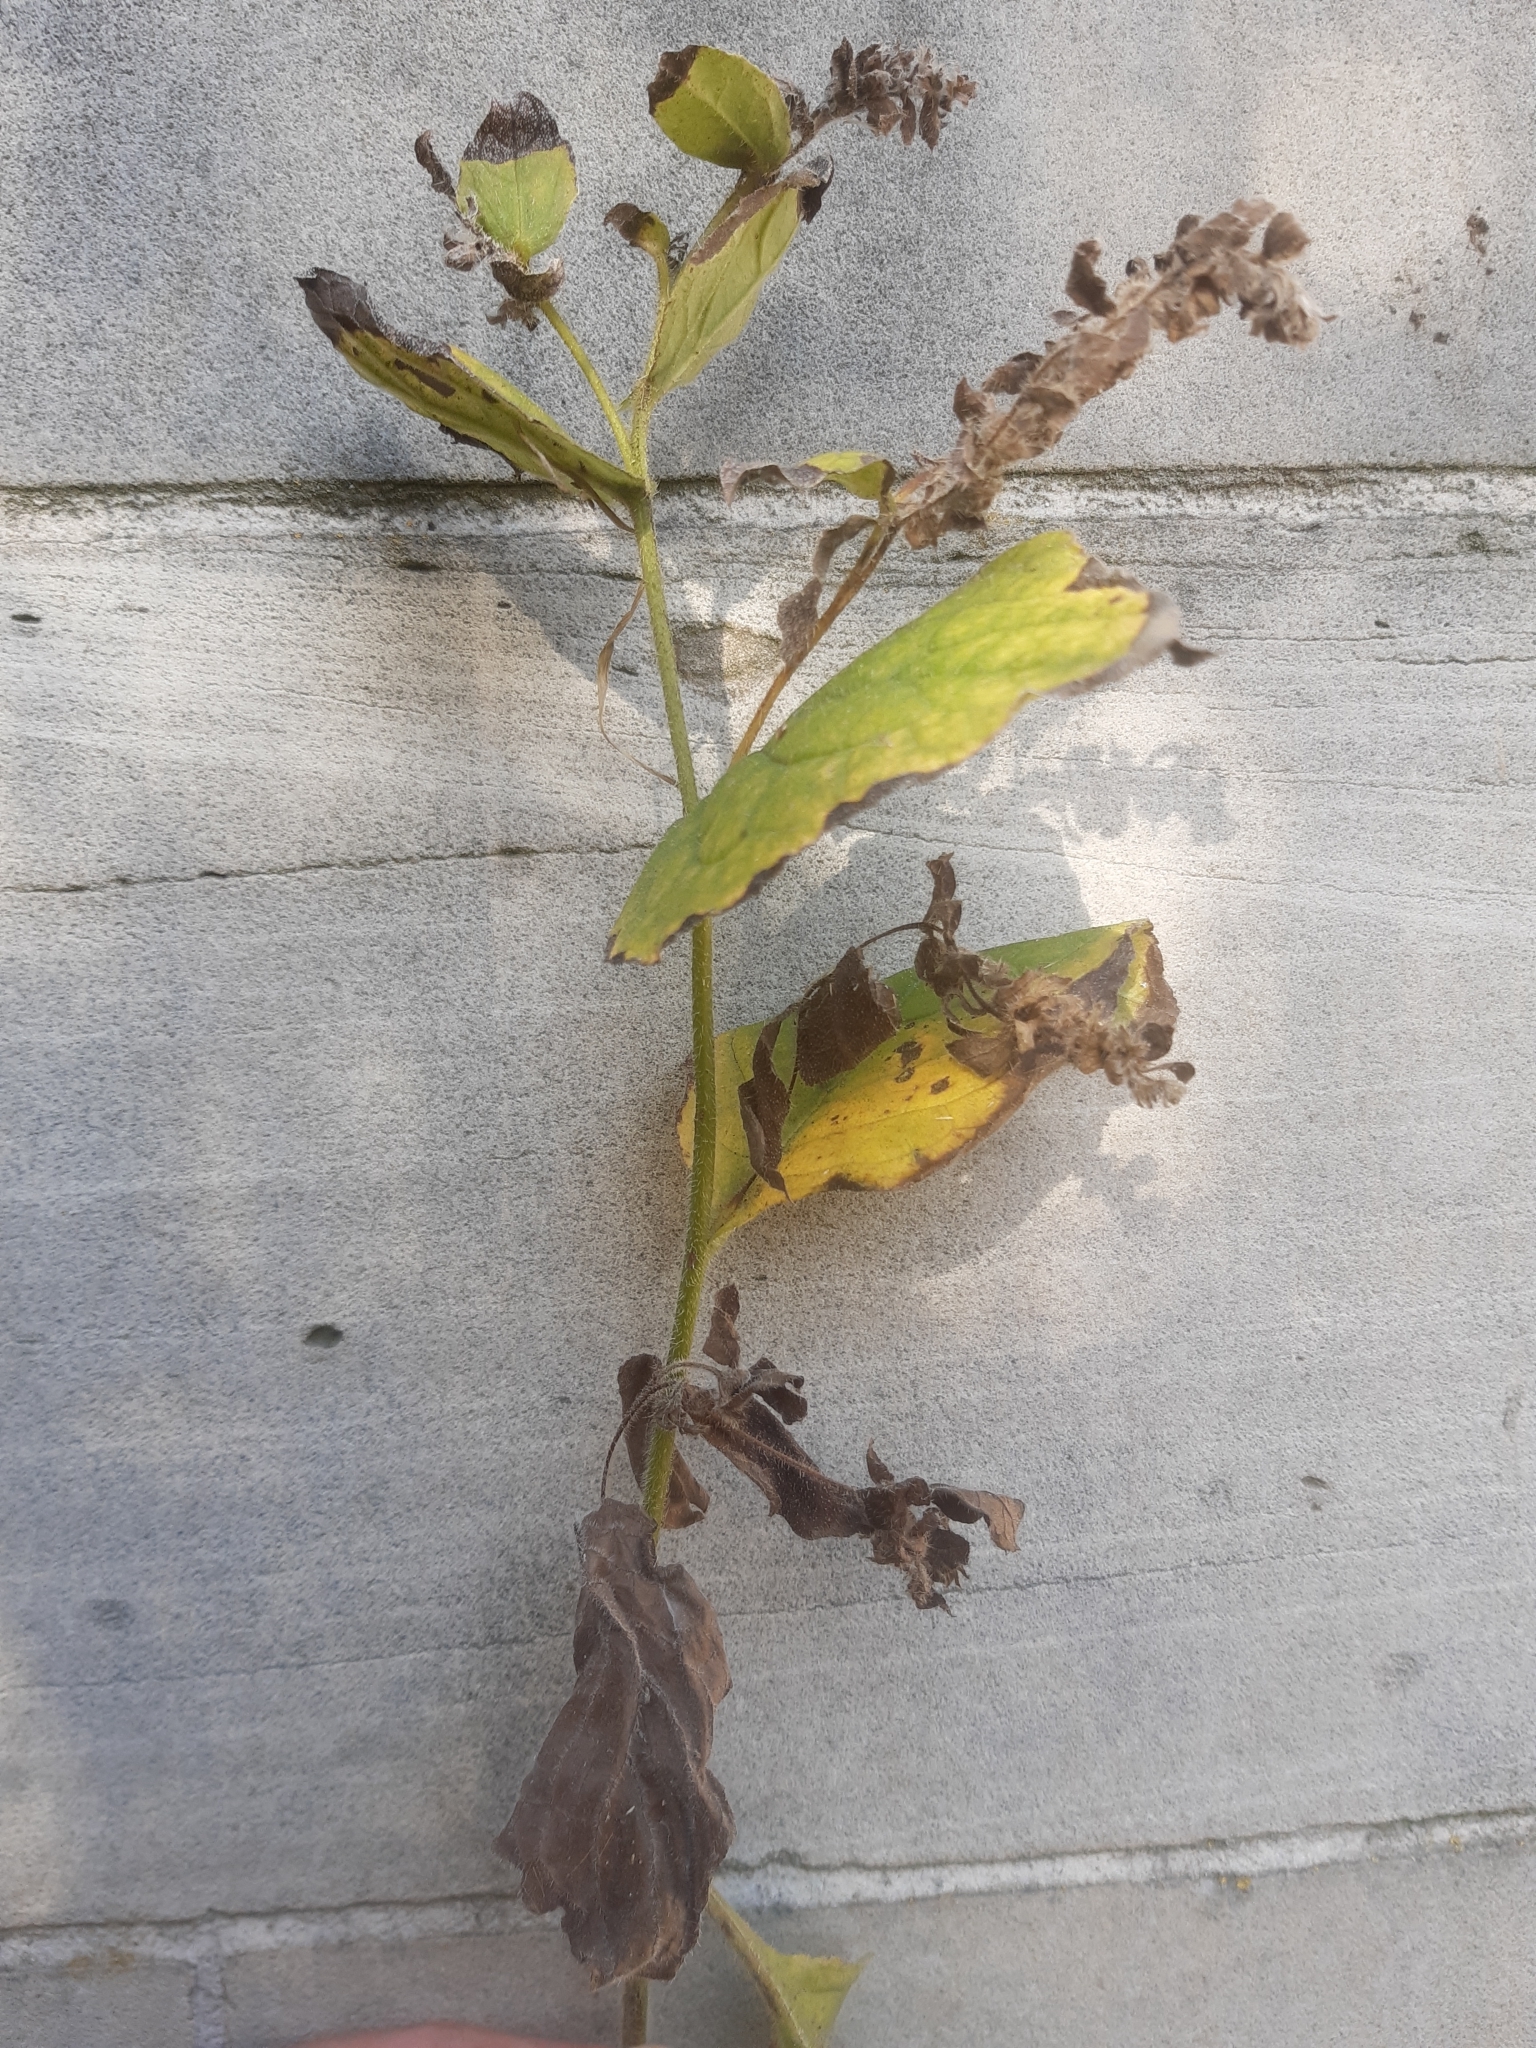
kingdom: Plantae
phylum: Tracheophyta
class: Magnoliopsida
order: Boraginales
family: Boraginaceae
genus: Symphytum
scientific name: Symphytum officinale
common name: Common comfrey
